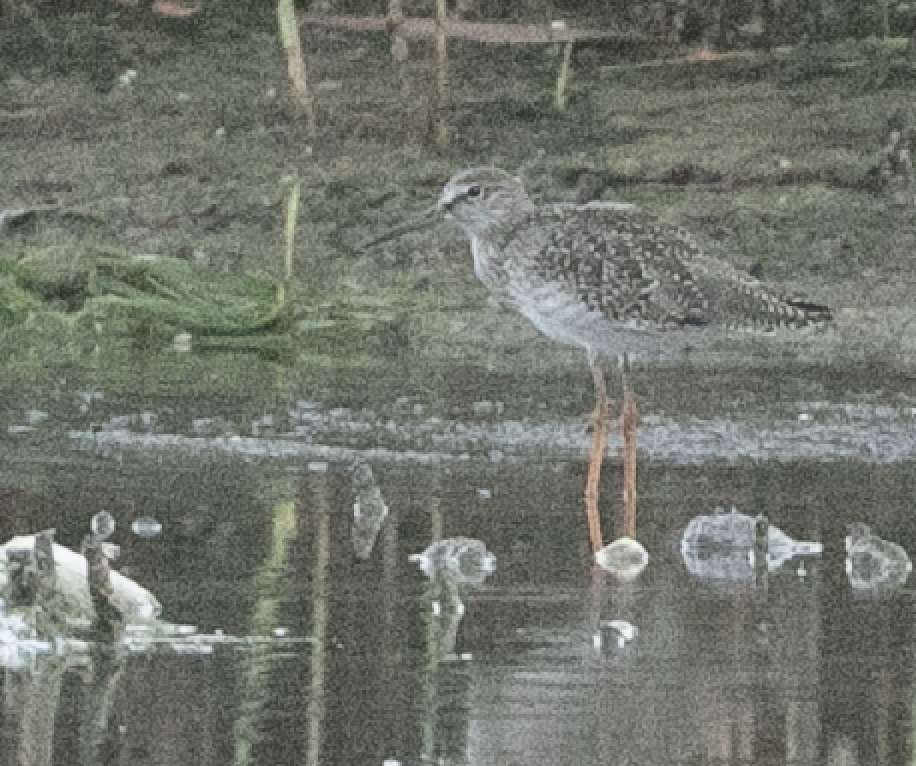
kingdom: Animalia
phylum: Chordata
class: Aves
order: Charadriiformes
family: Scolopacidae
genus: Tringa
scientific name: Tringa totanus
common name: Common redshank
